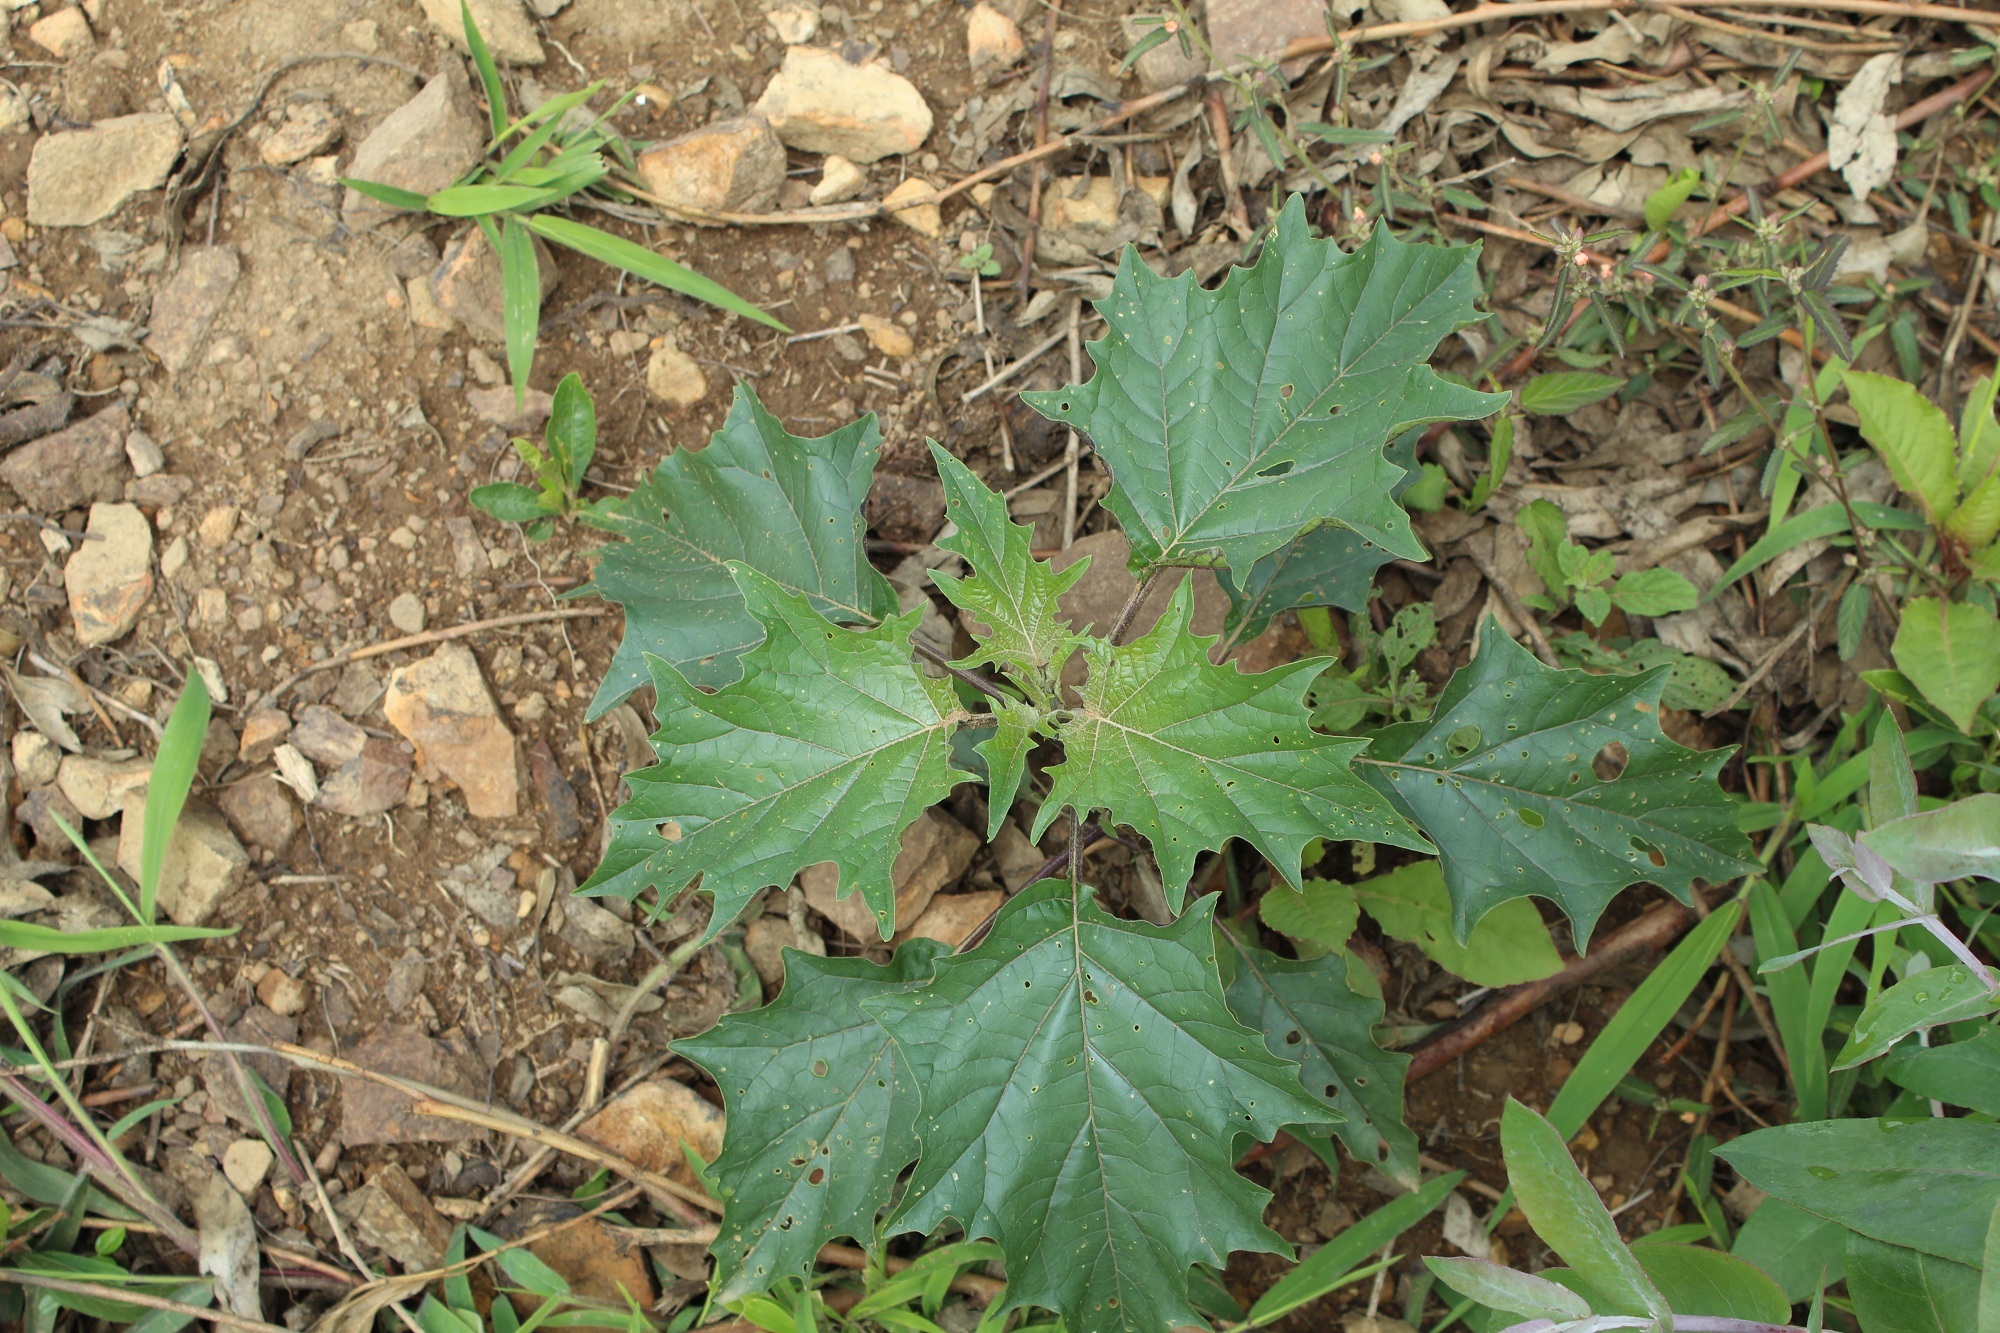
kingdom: Plantae
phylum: Tracheophyta
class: Magnoliopsida
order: Solanales
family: Solanaceae
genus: Datura
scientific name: Datura stramonium
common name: Thorn-apple
